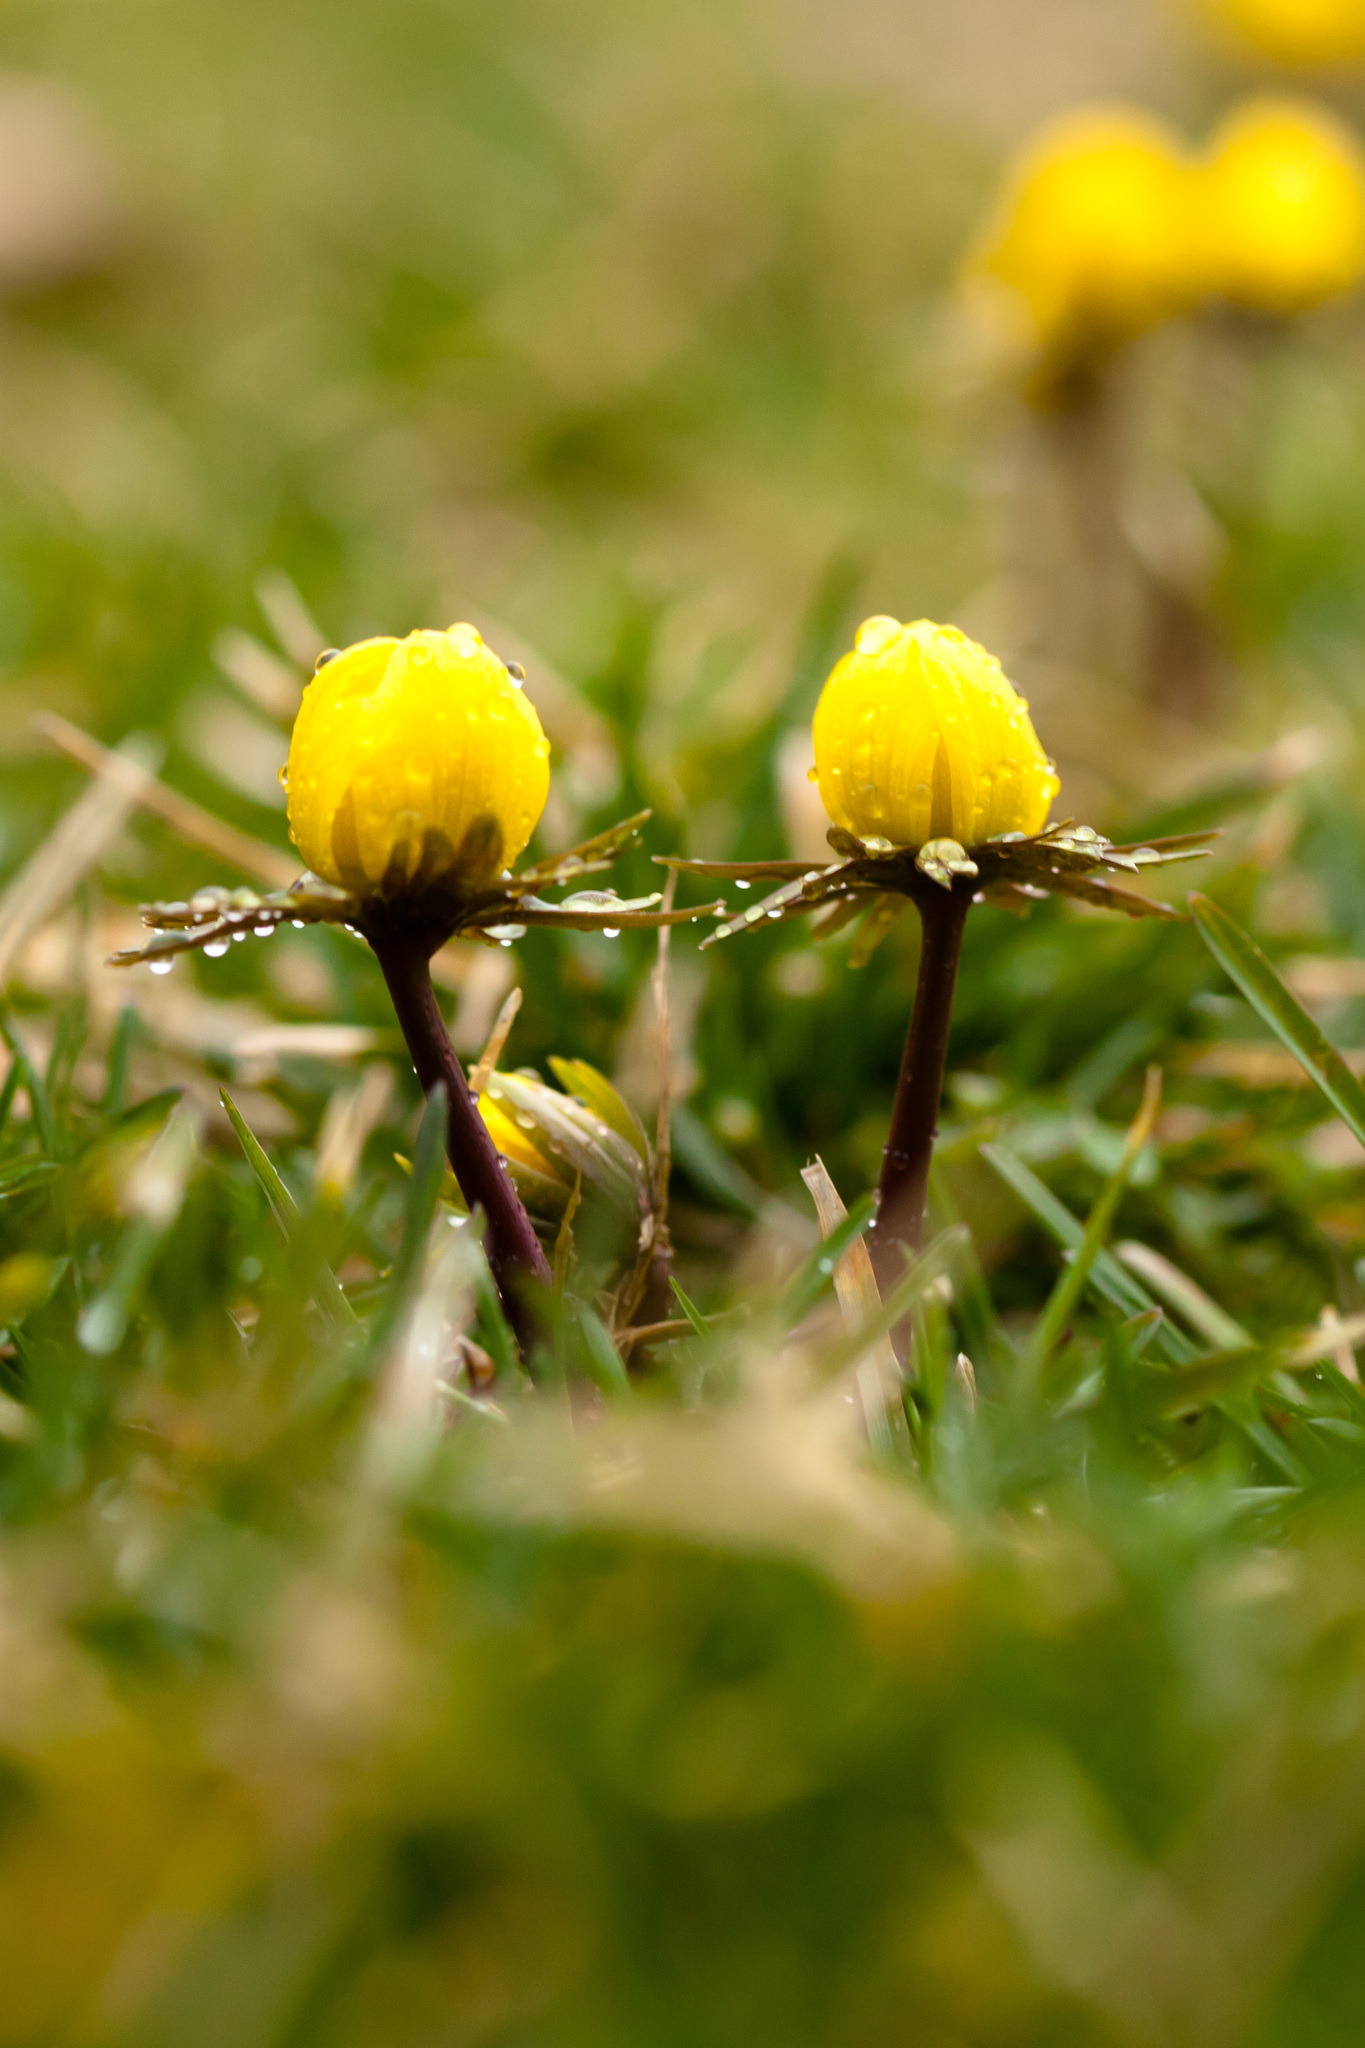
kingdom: Plantae
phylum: Tracheophyta
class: Magnoliopsida
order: Ranunculales
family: Ranunculaceae
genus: Eranthis
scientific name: Eranthis hyemalis
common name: Winter aconite
